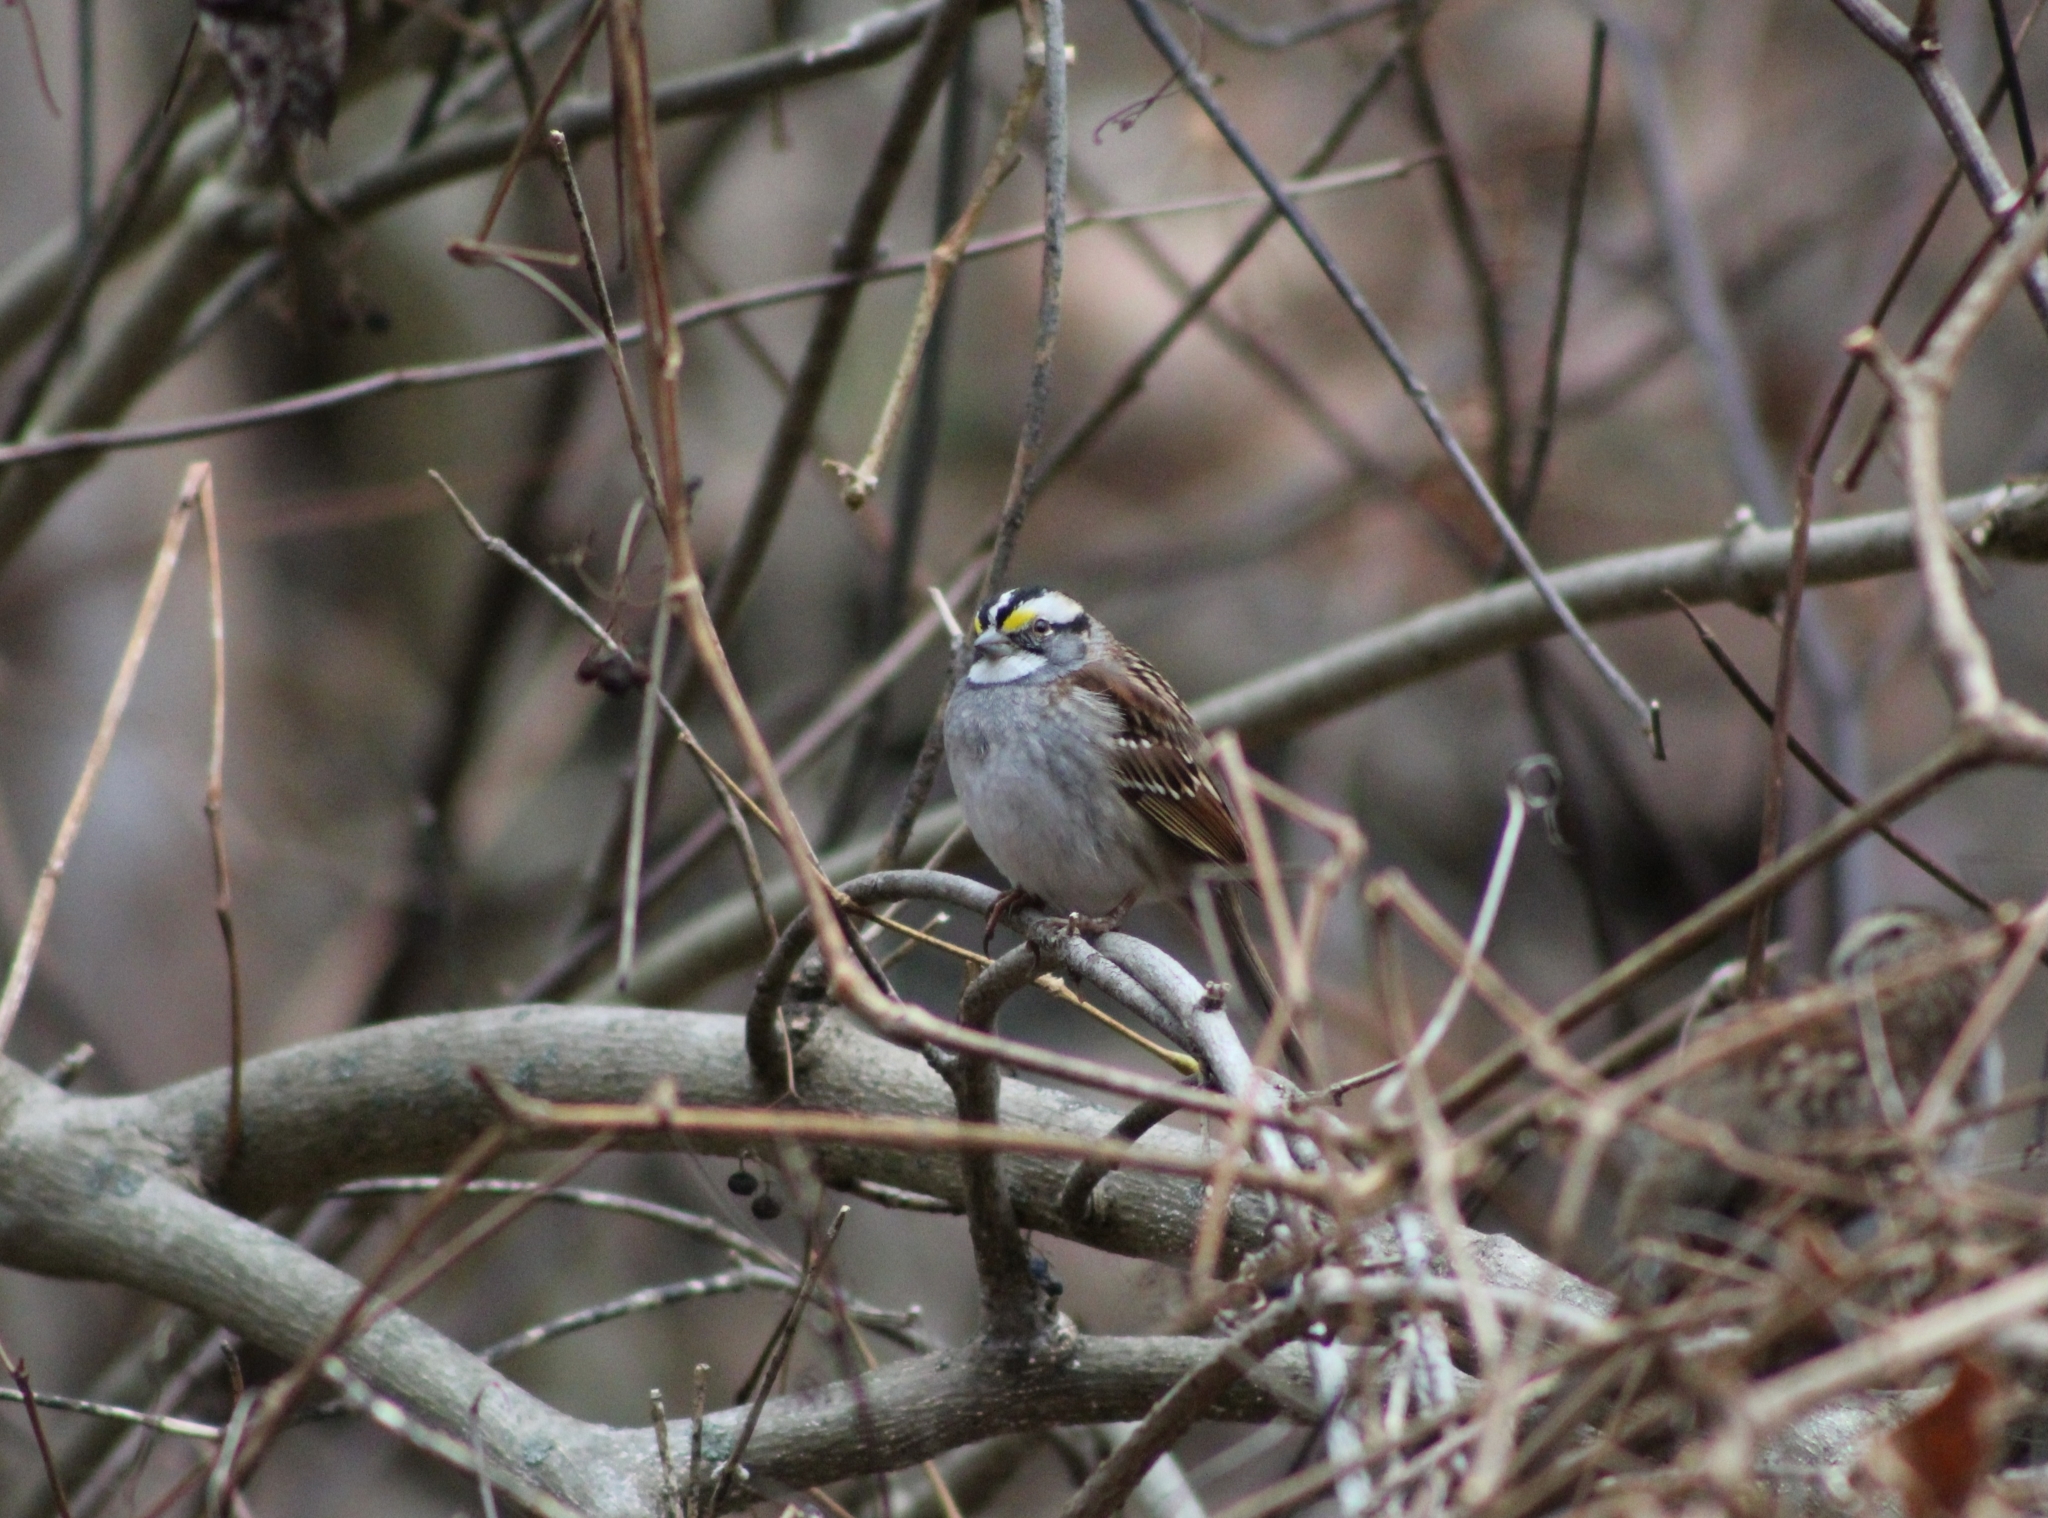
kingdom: Animalia
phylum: Chordata
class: Aves
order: Passeriformes
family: Passerellidae
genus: Zonotrichia
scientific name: Zonotrichia albicollis
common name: White-throated sparrow
